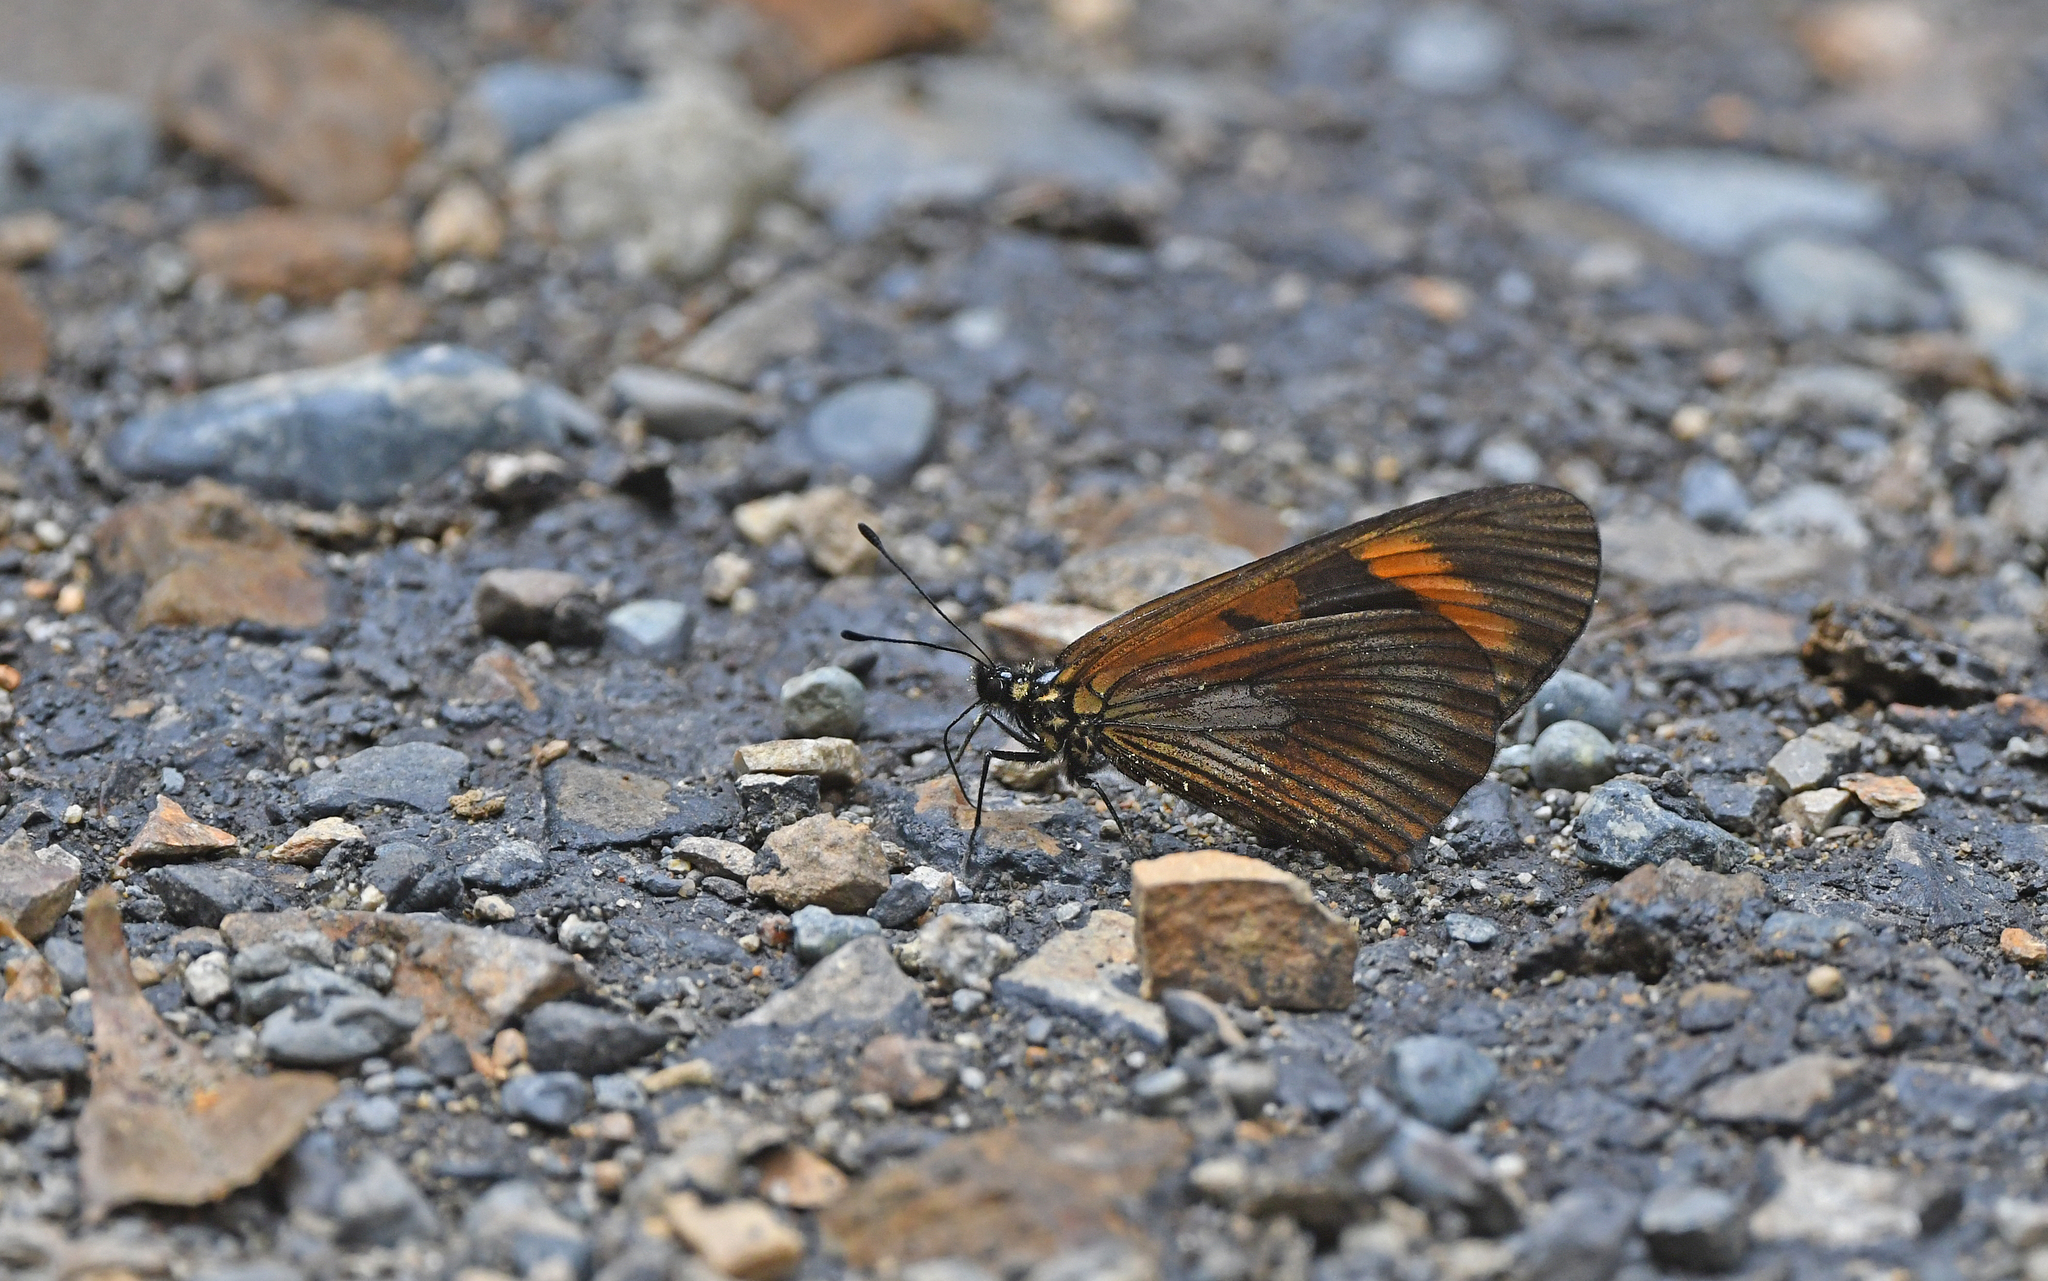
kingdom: Animalia
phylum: Arthropoda
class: Insecta
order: Lepidoptera
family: Nymphalidae
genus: Acraea
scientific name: Acraea Altinote dicaeus
